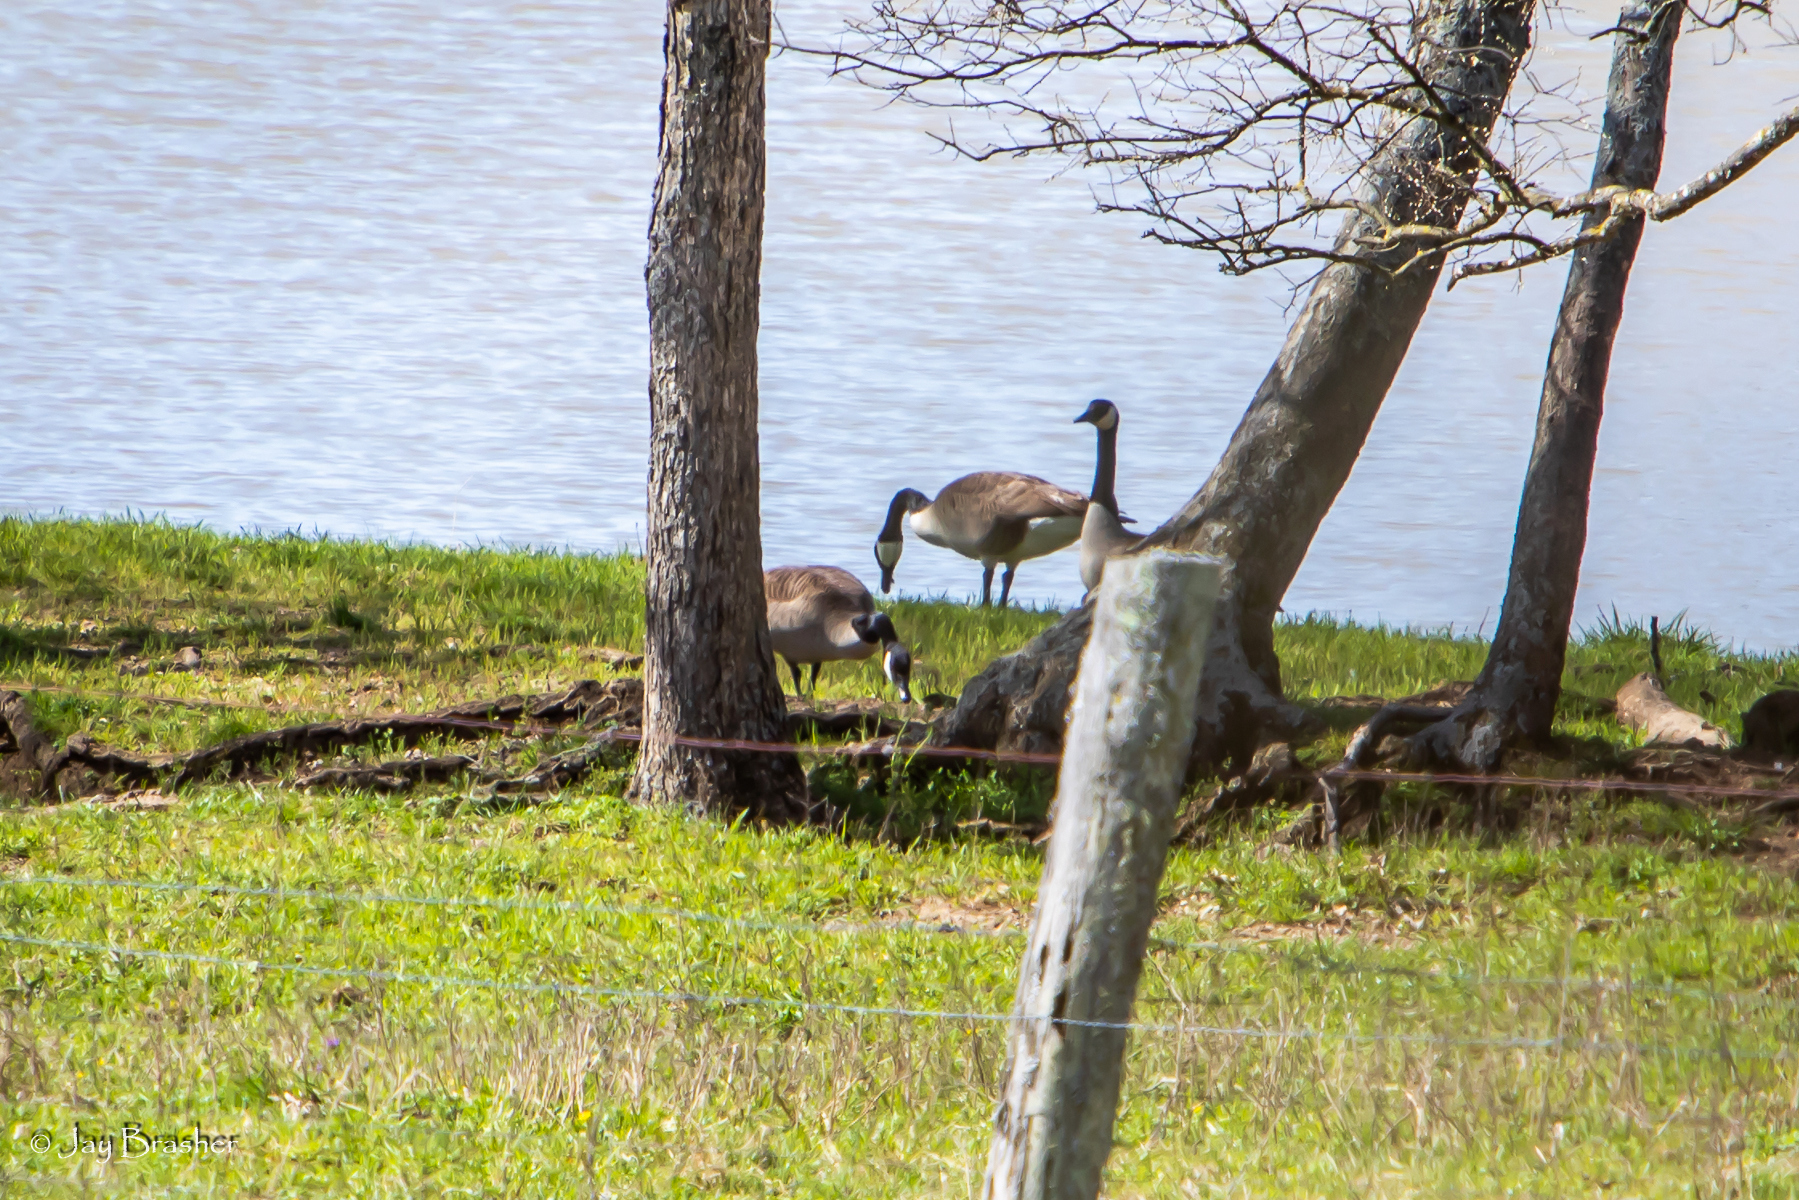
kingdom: Animalia
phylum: Chordata
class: Aves
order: Anseriformes
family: Anatidae
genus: Branta
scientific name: Branta canadensis
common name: Canada goose
